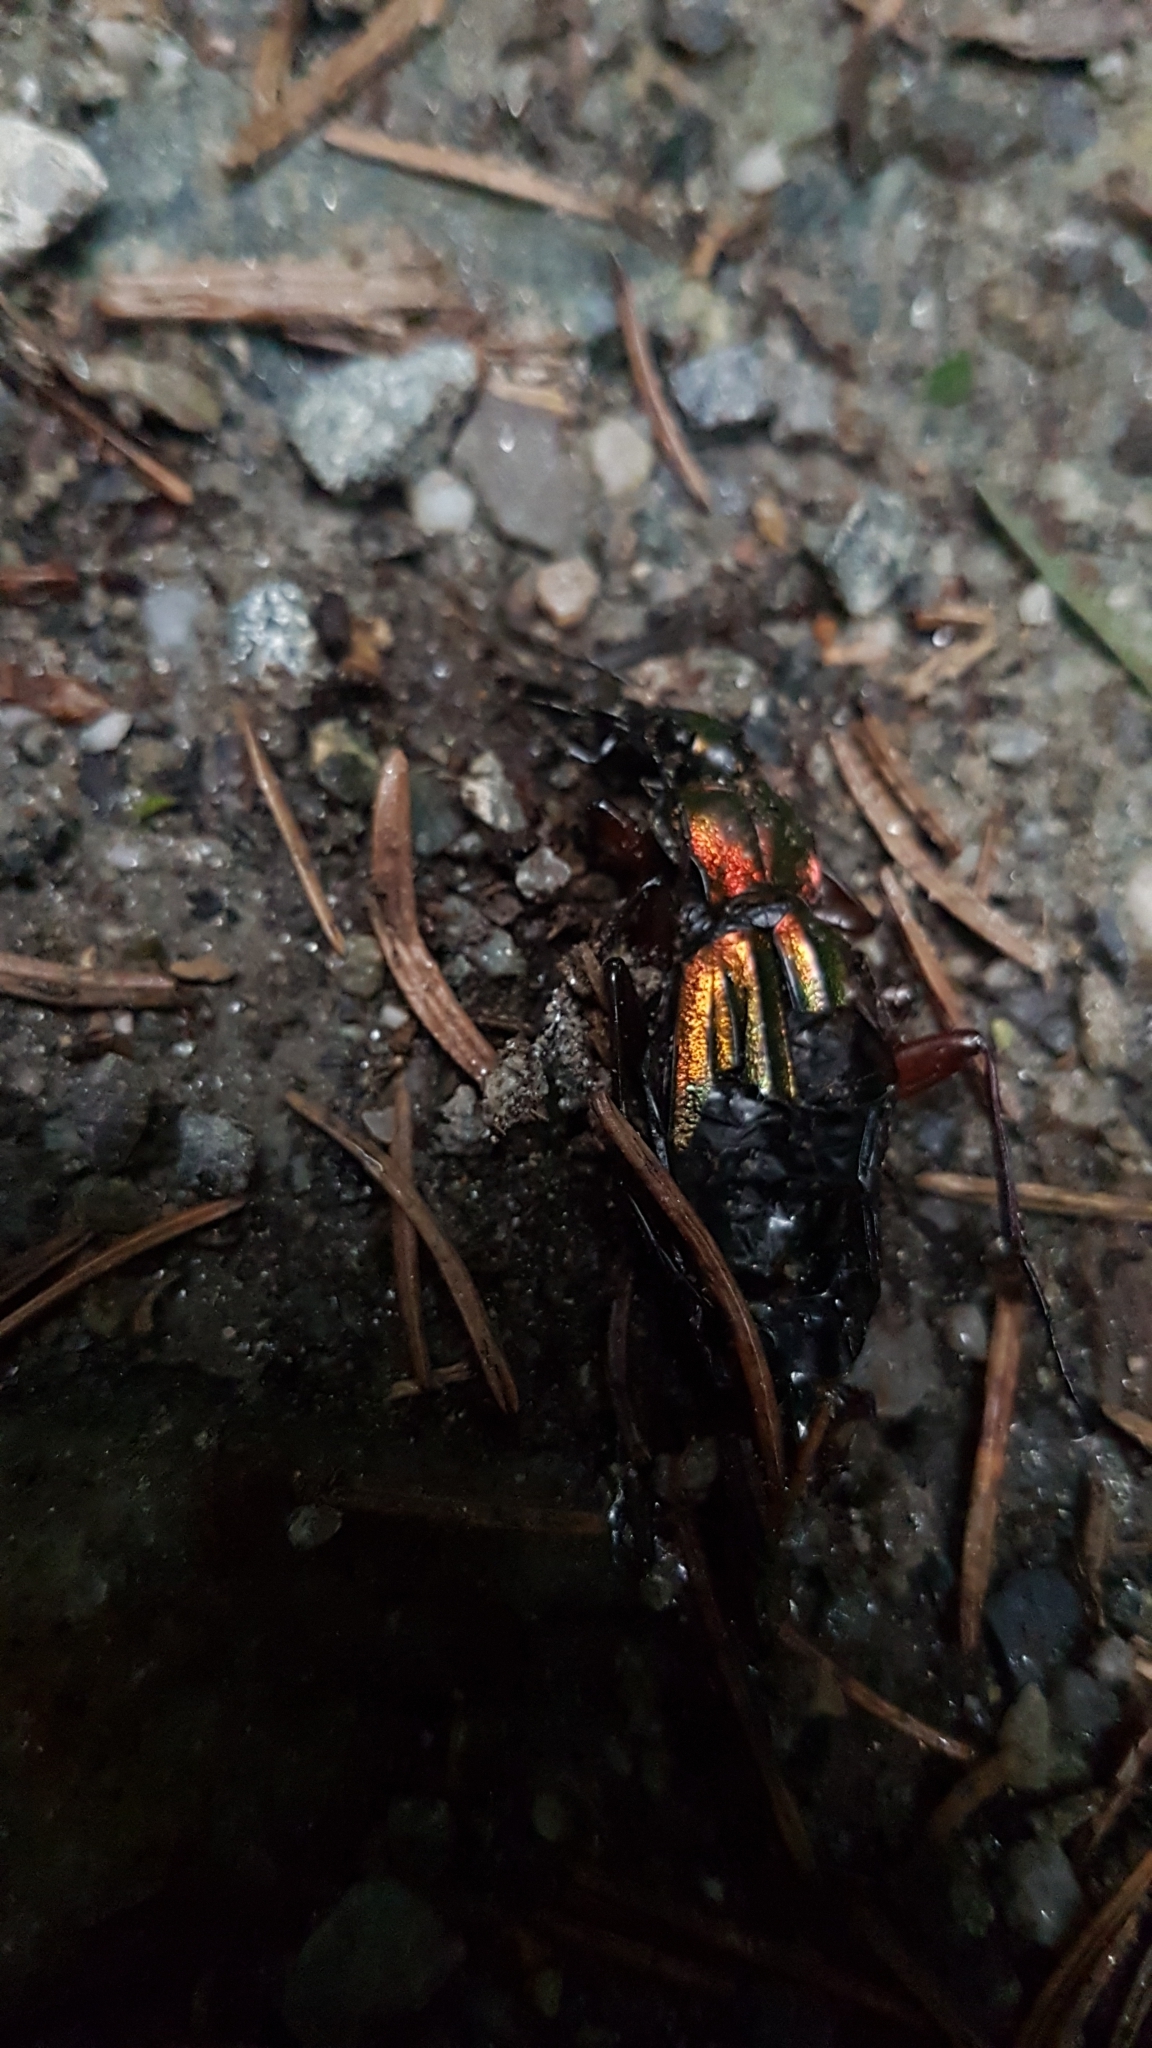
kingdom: Animalia
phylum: Arthropoda
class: Insecta
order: Coleoptera
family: Carabidae
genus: Carabus
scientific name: Carabus auronitens
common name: Carabus auronitens
